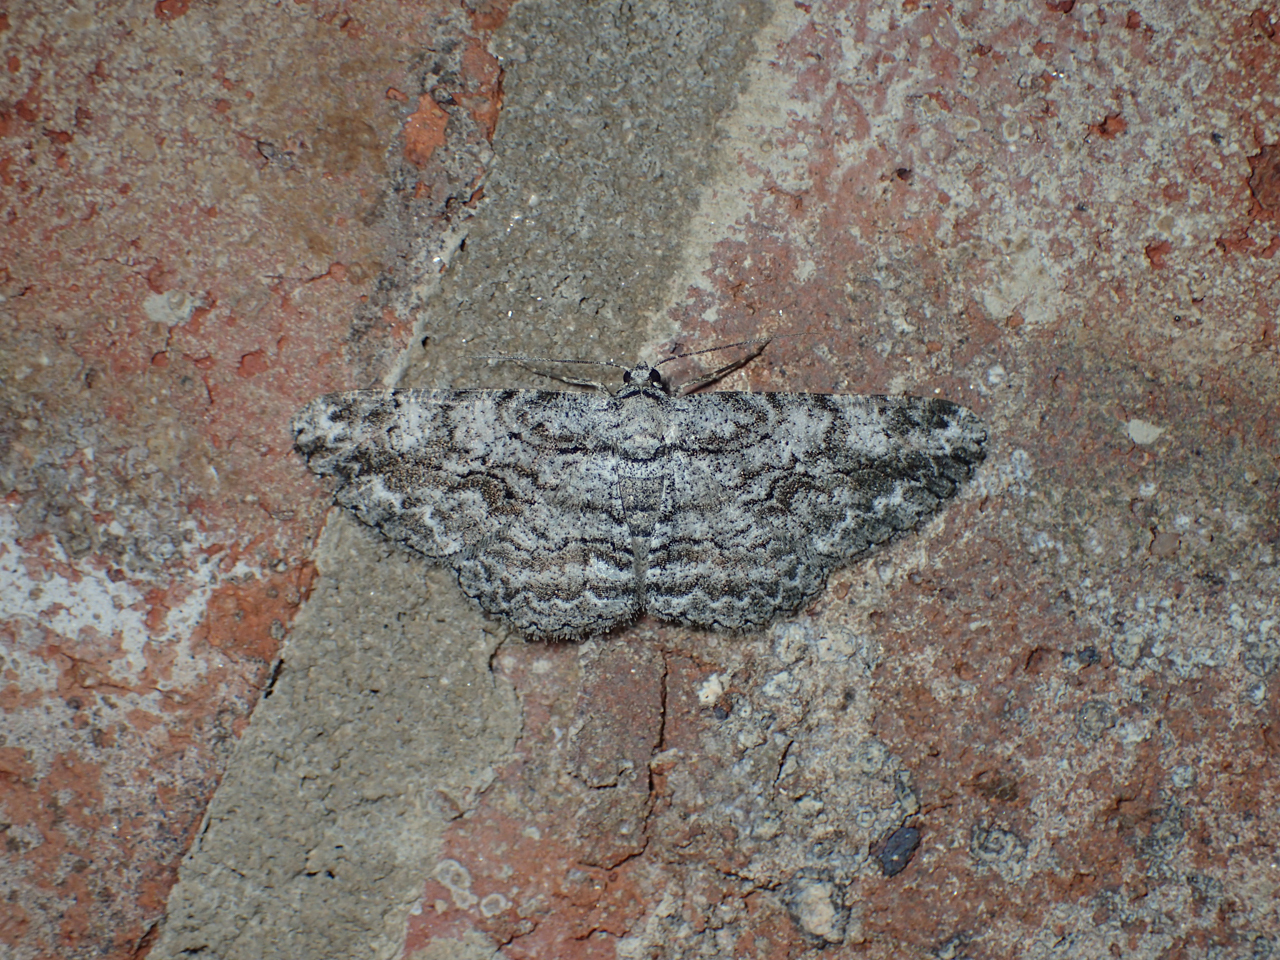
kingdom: Animalia
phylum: Arthropoda
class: Insecta
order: Lepidoptera
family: Geometridae
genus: Anavitrinella
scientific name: Anavitrinella pampinaria
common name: Common gray
